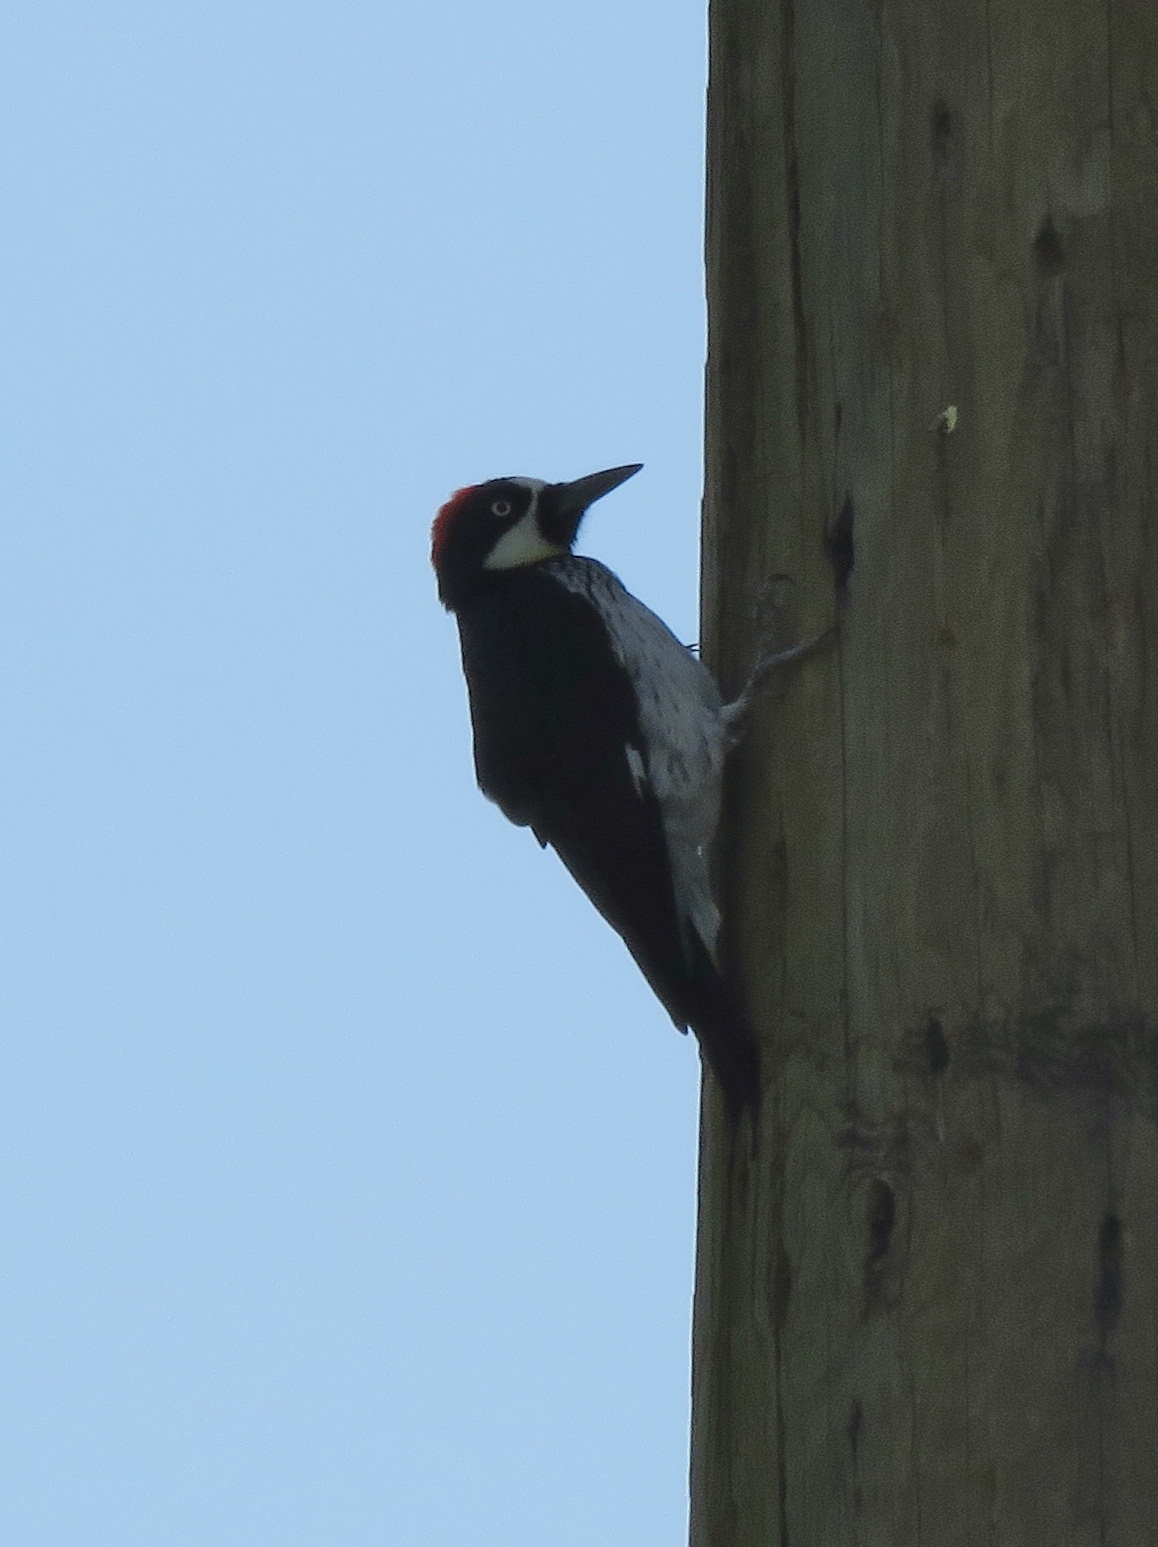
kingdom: Animalia
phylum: Chordata
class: Aves
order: Piciformes
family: Picidae
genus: Melanerpes
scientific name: Melanerpes formicivorus
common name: Acorn woodpecker
